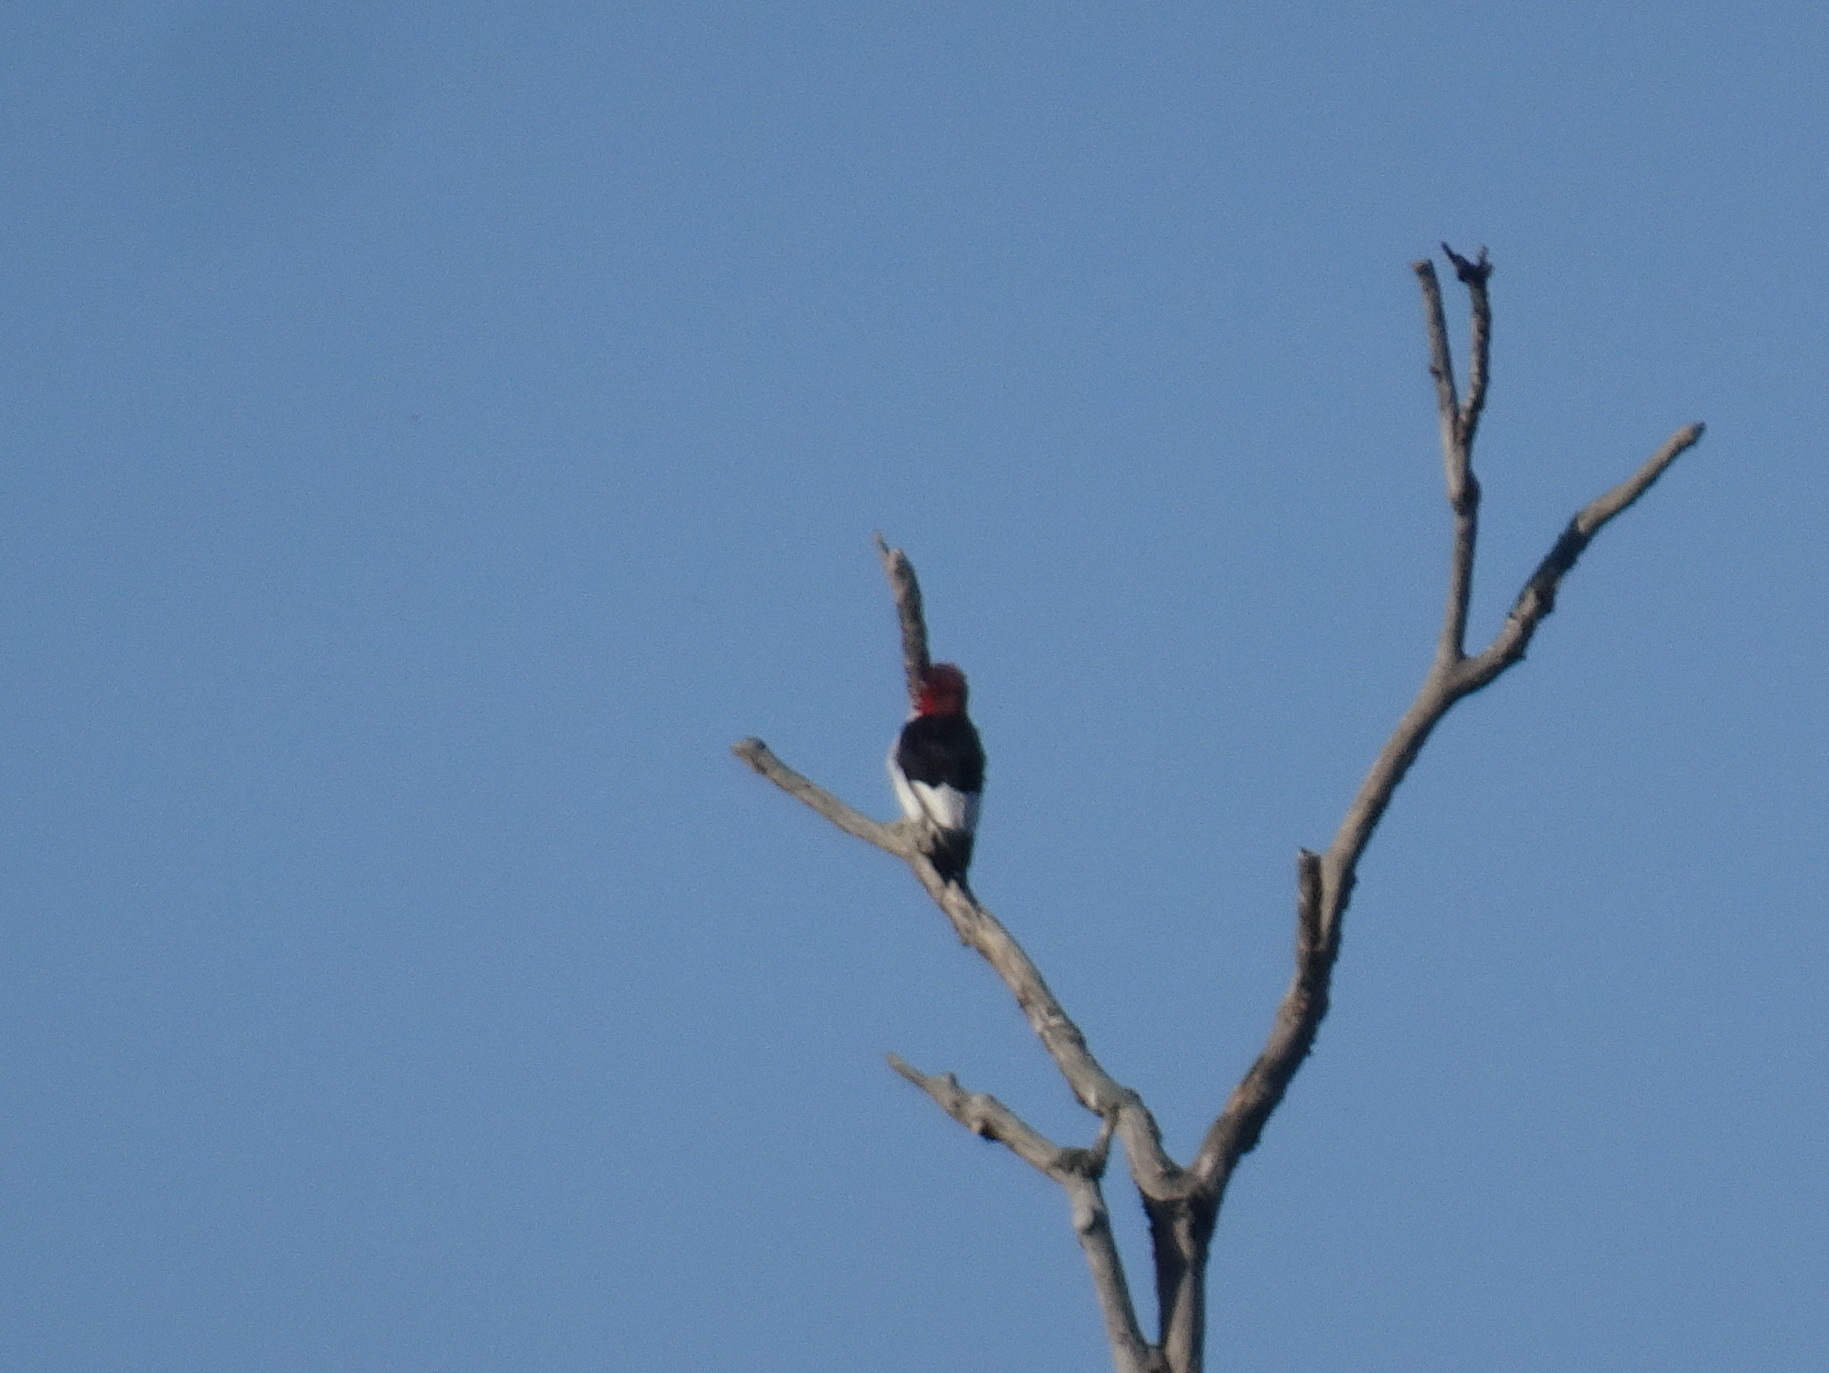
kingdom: Animalia
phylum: Chordata
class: Aves
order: Piciformes
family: Picidae
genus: Melanerpes
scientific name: Melanerpes erythrocephalus
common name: Red-headed woodpecker
